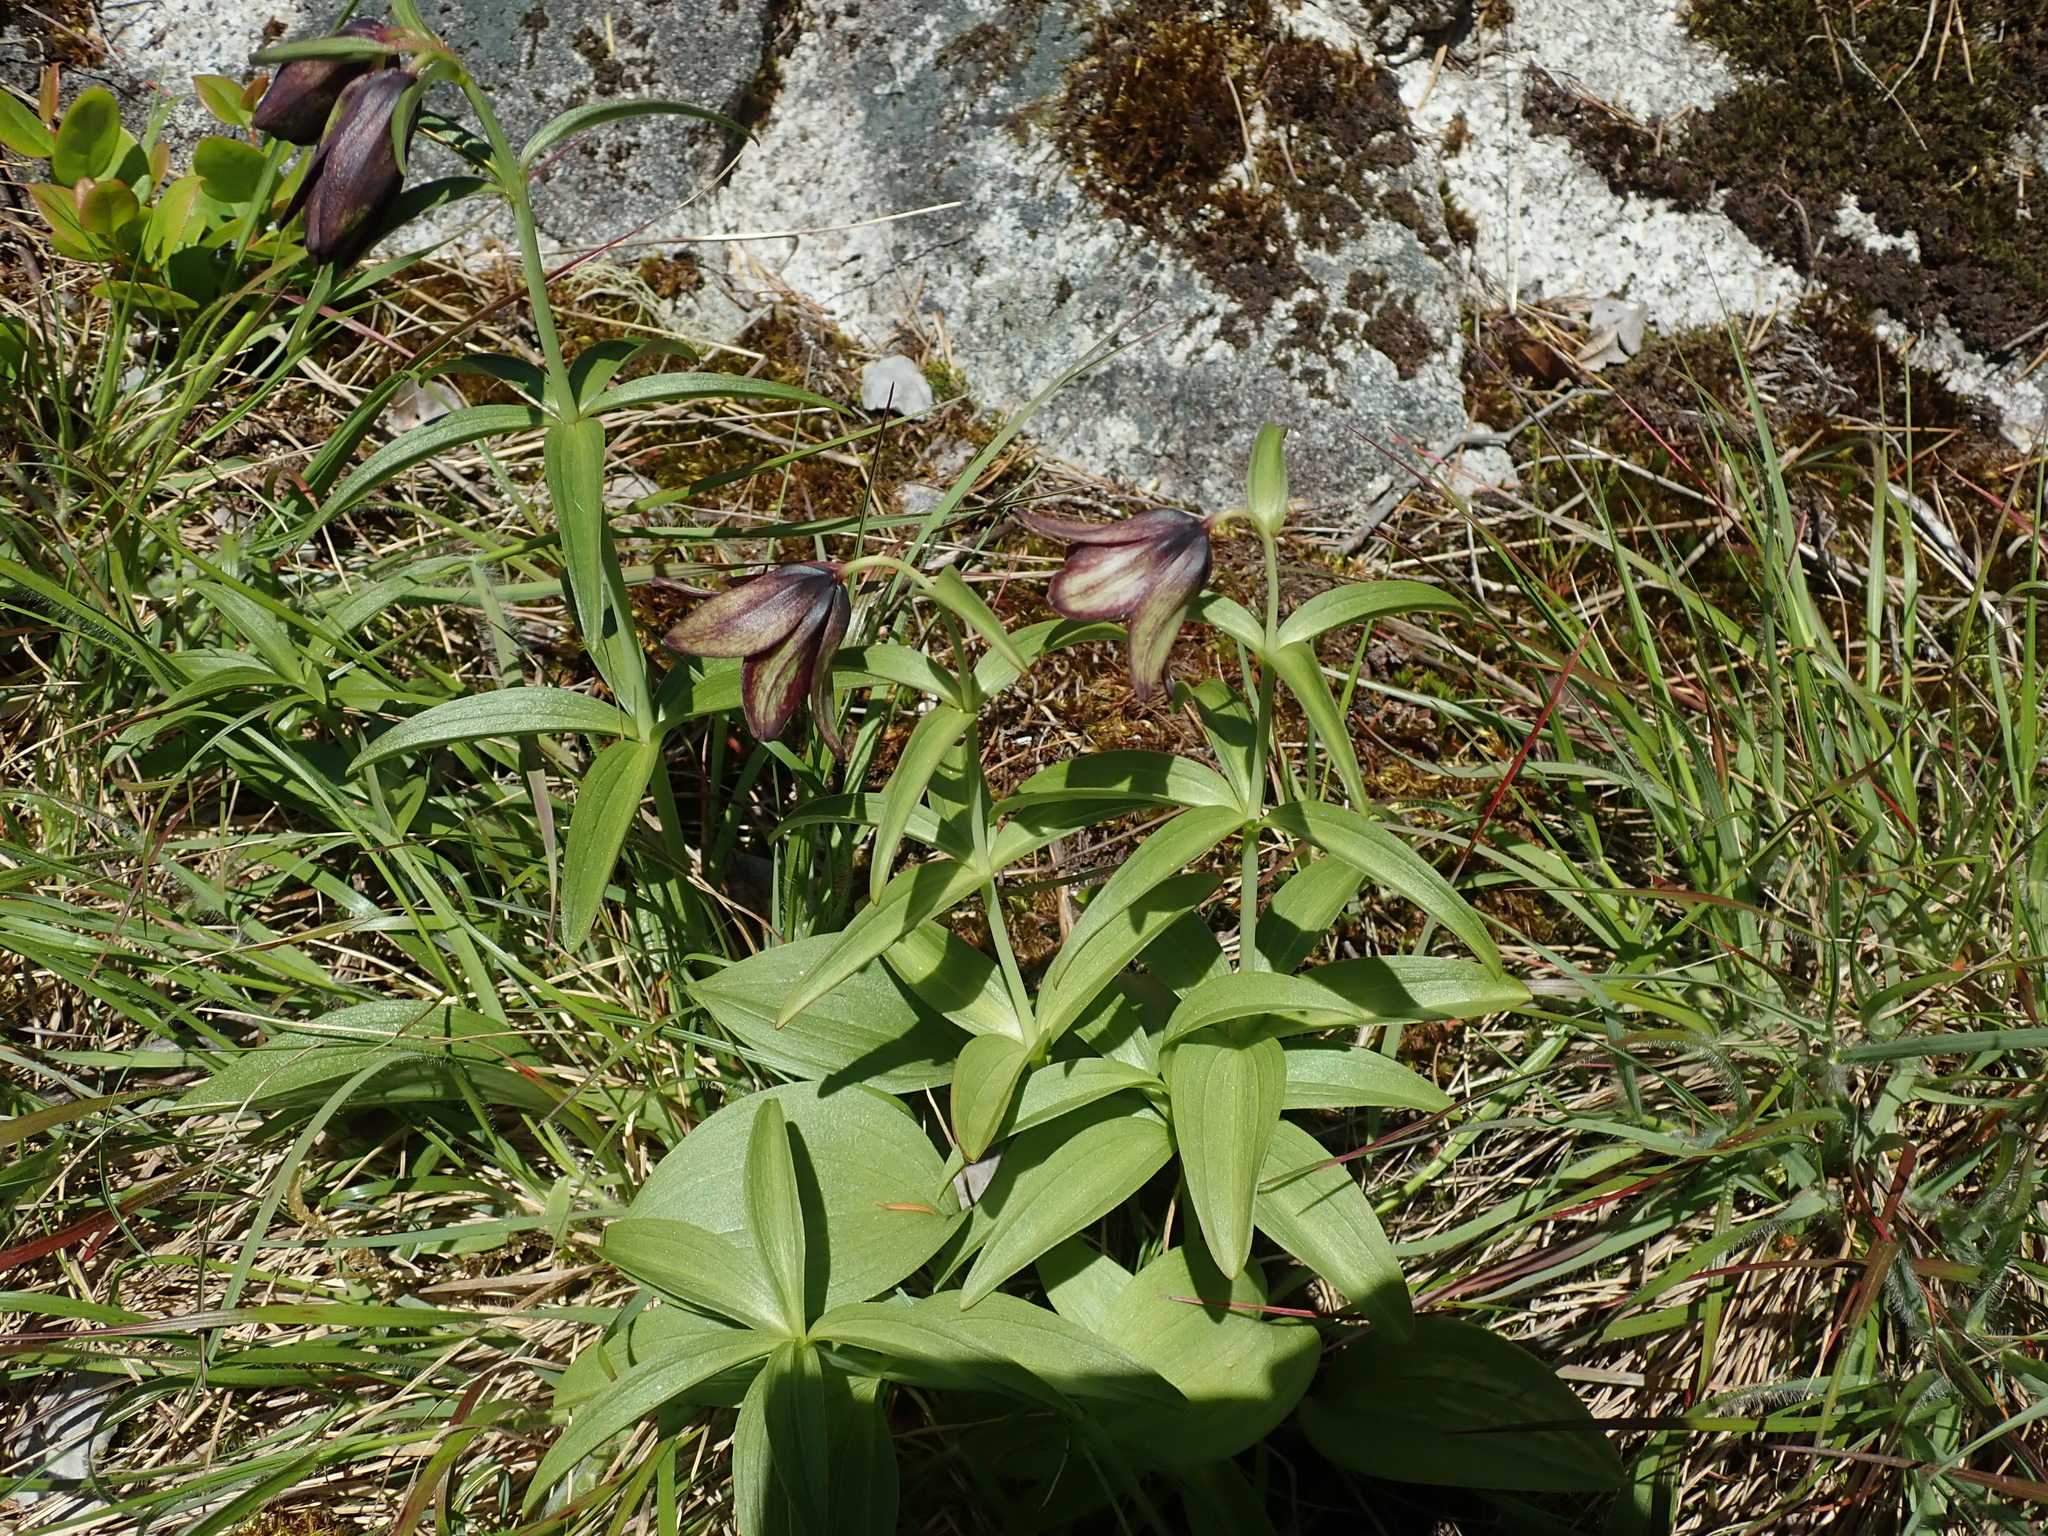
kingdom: Plantae
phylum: Tracheophyta
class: Liliopsida
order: Liliales
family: Liliaceae
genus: Fritillaria
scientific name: Fritillaria camschatcensis
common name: Kamchatka fritillary
